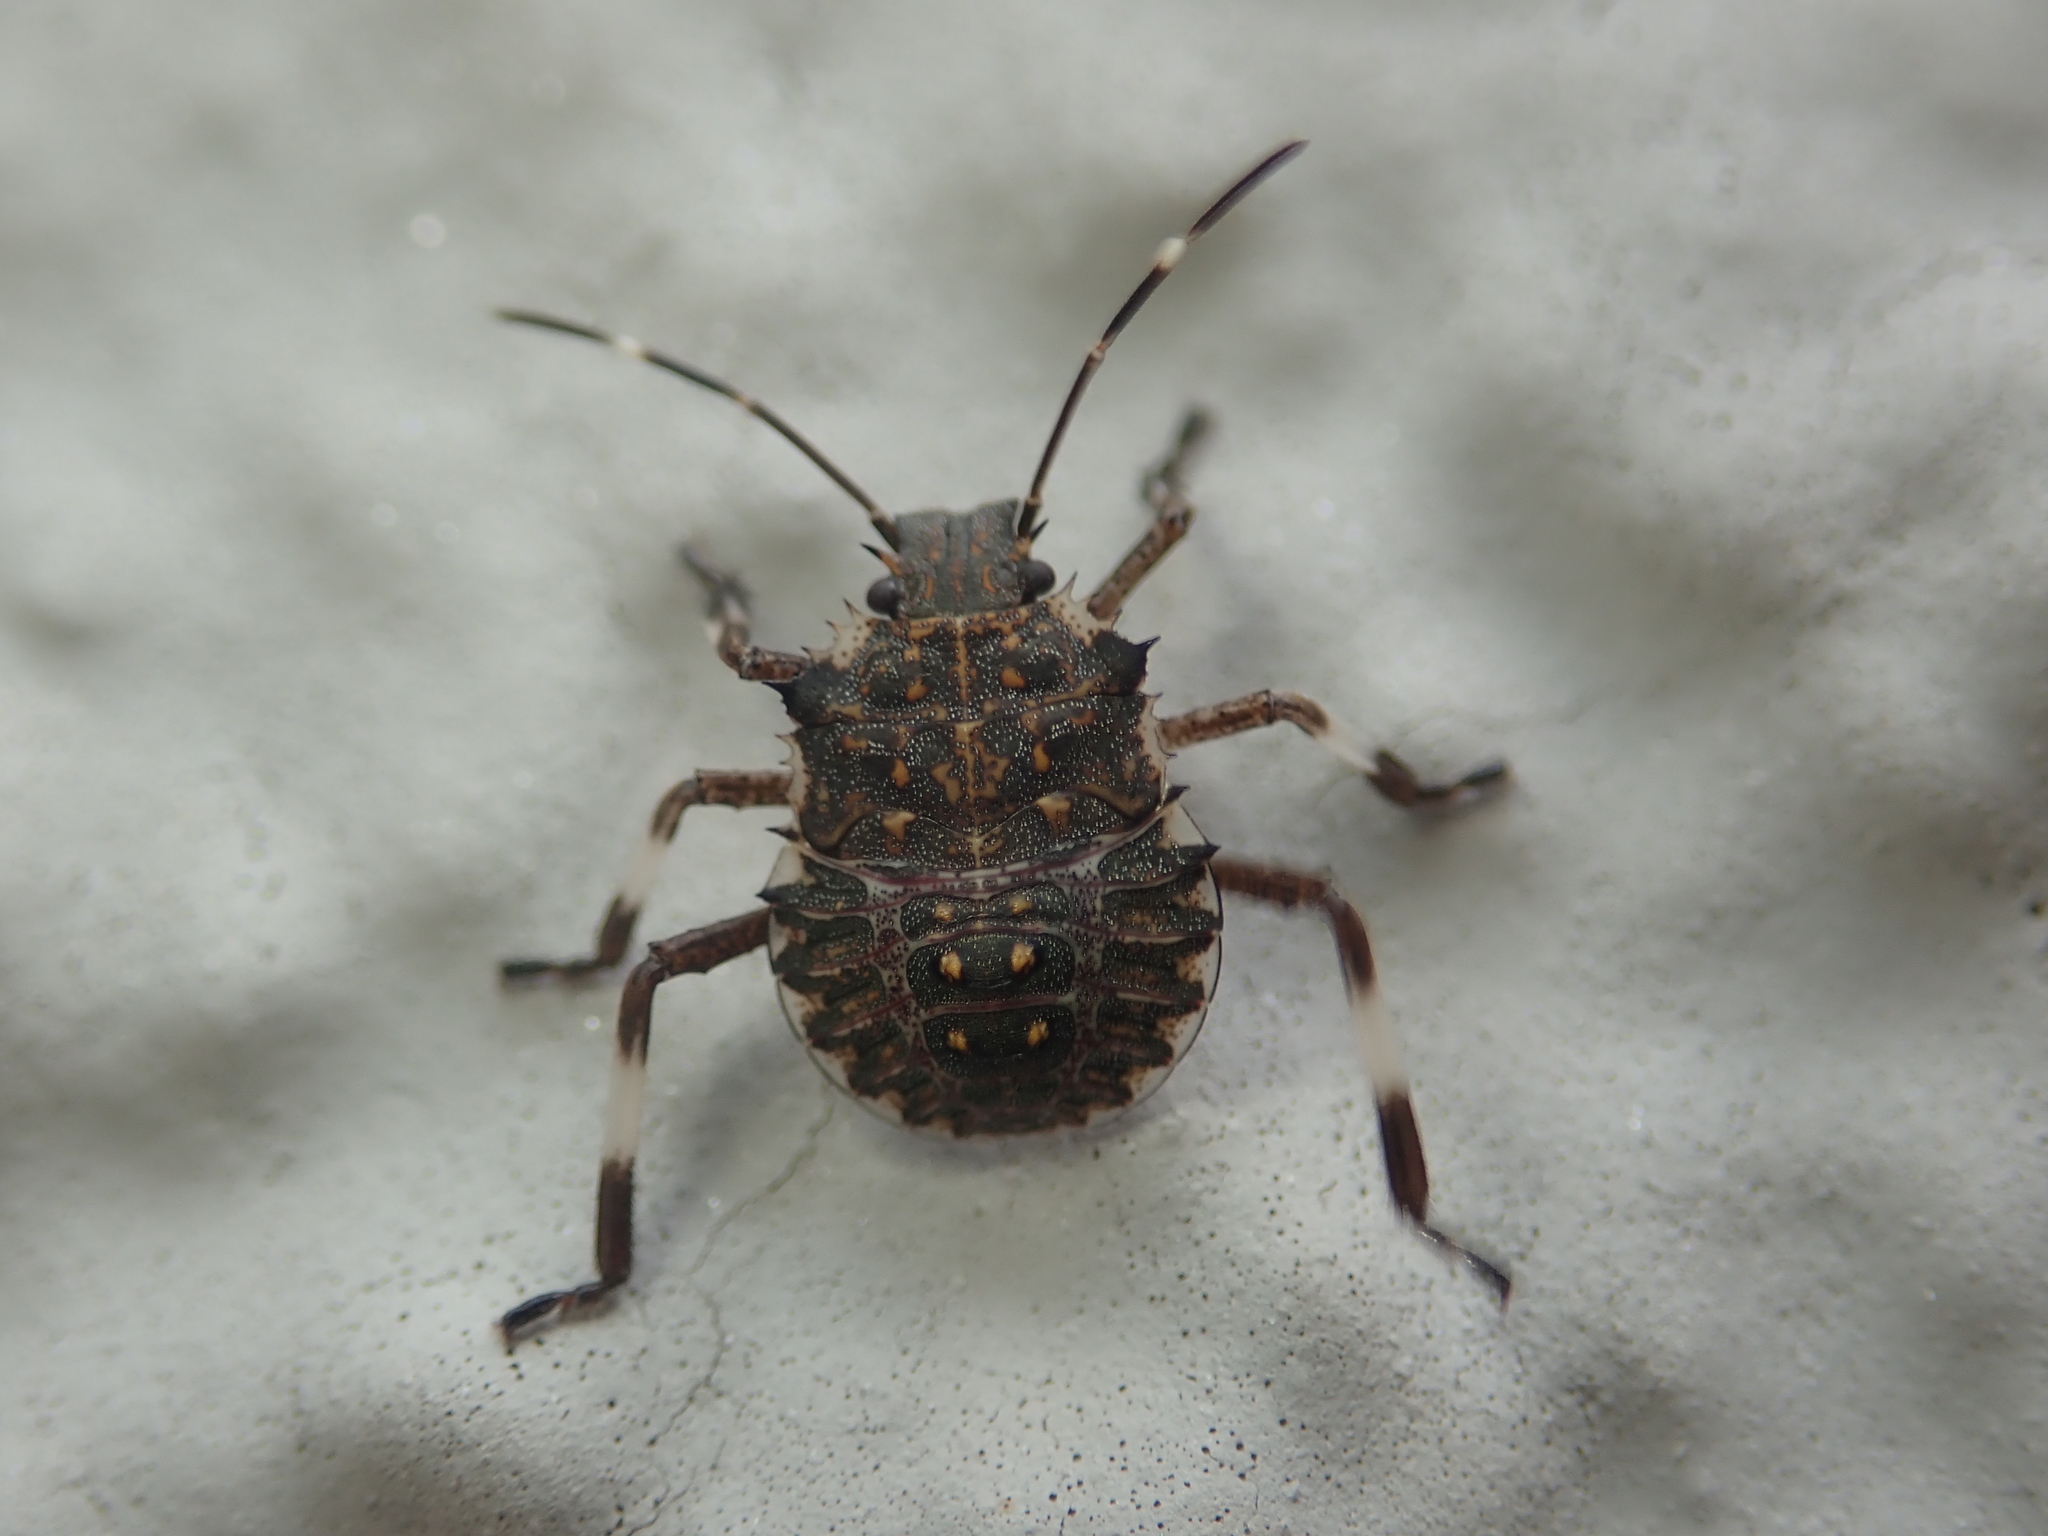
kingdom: Animalia
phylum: Arthropoda
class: Insecta
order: Hemiptera
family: Pentatomidae
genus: Halyomorpha
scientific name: Halyomorpha halys
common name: Brown marmorated stink bug
